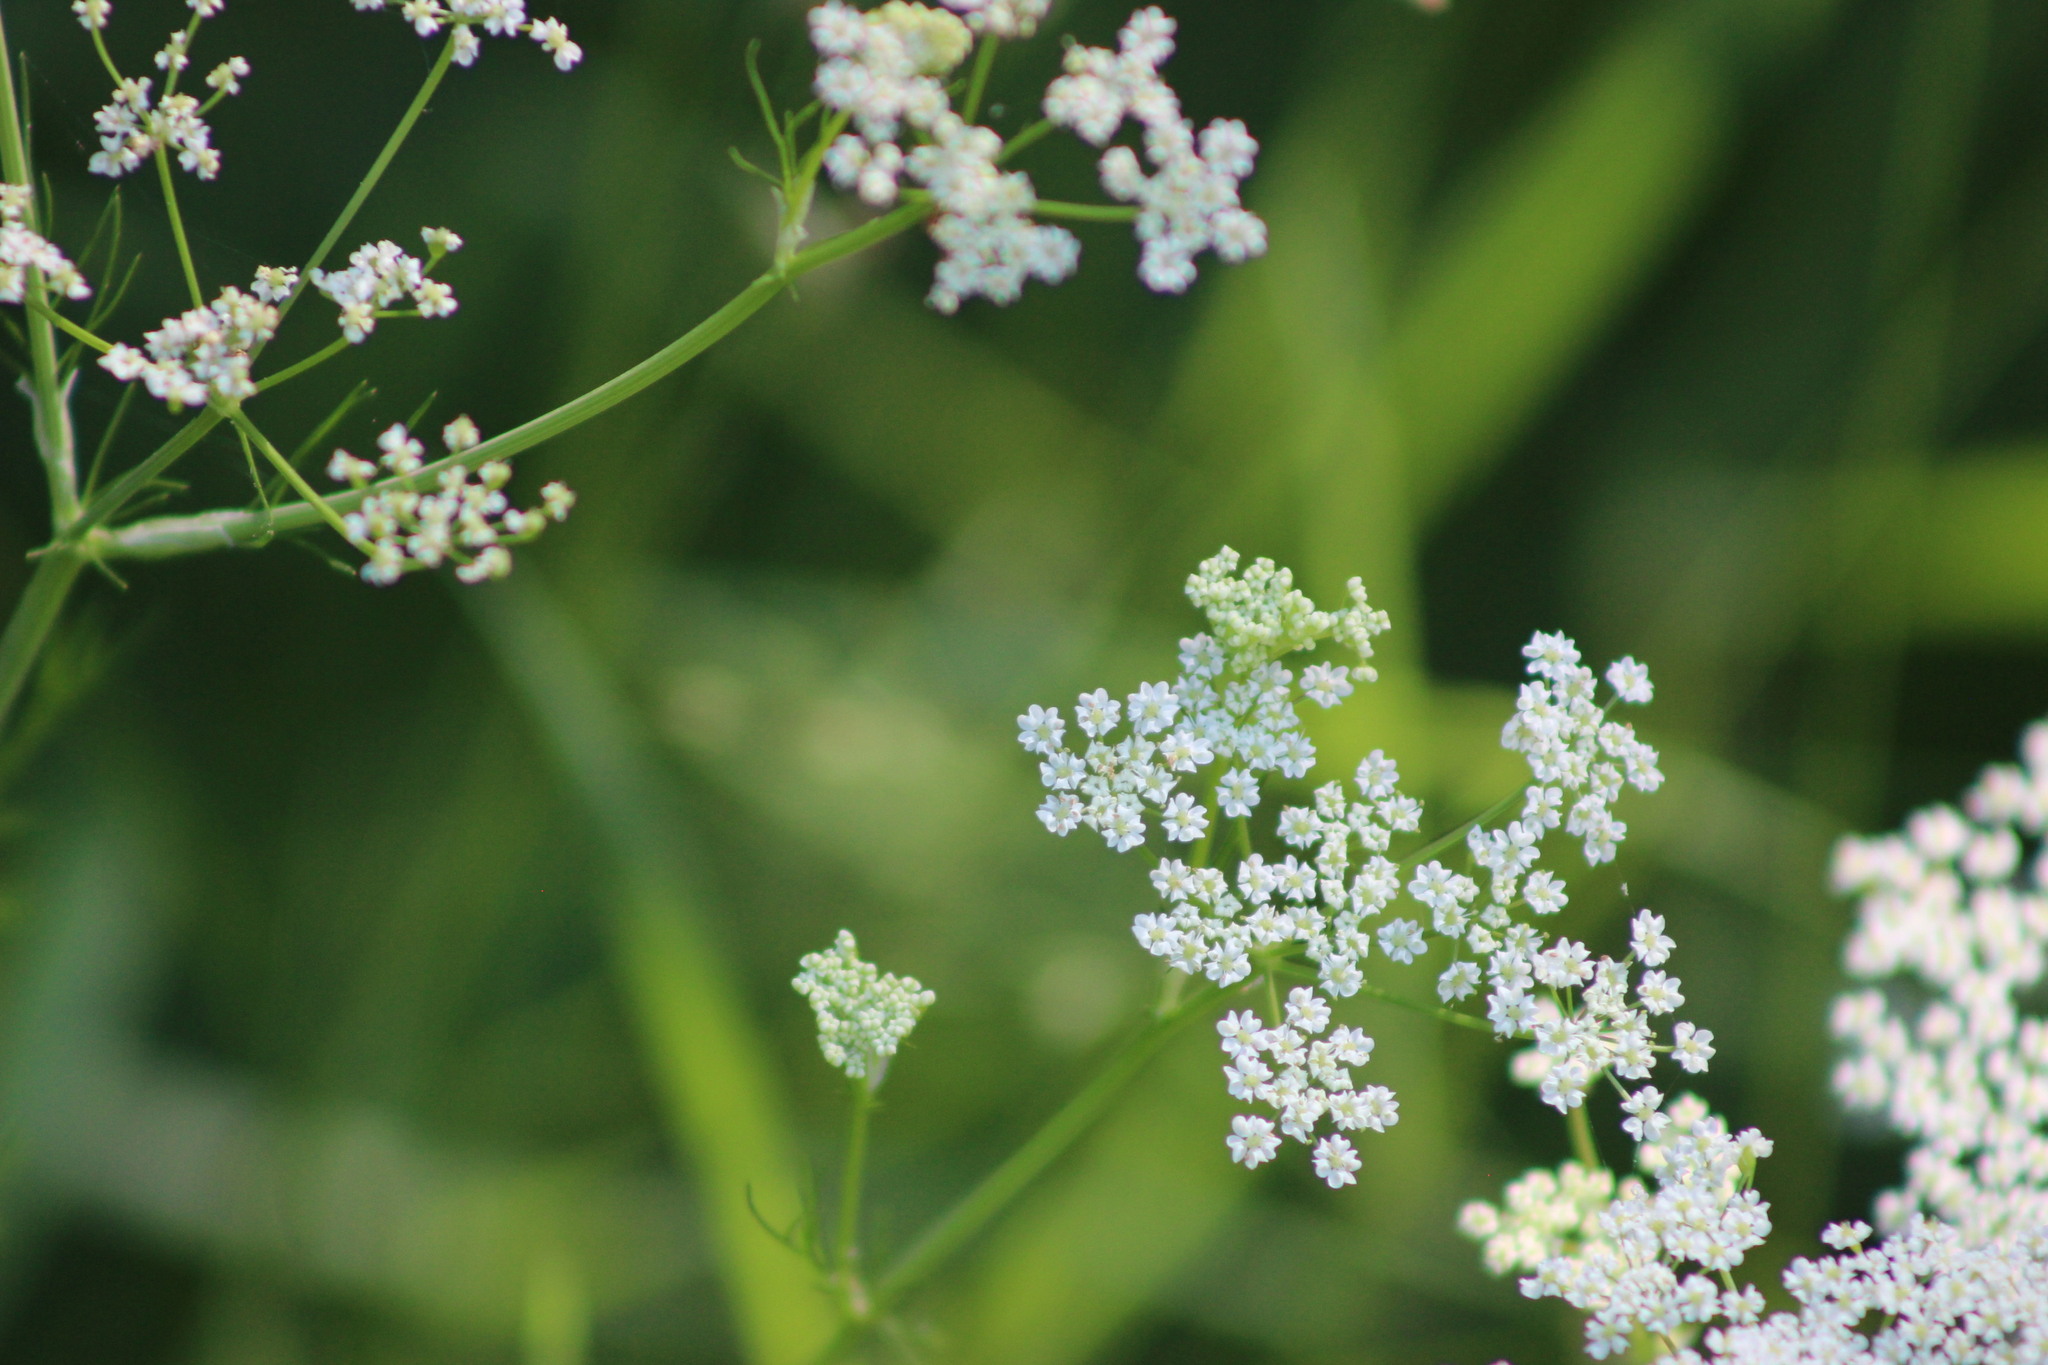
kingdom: Plantae
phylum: Tracheophyta
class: Magnoliopsida
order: Apiales
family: Apiaceae
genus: Carum
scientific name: Carum carvi
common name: Caraway
